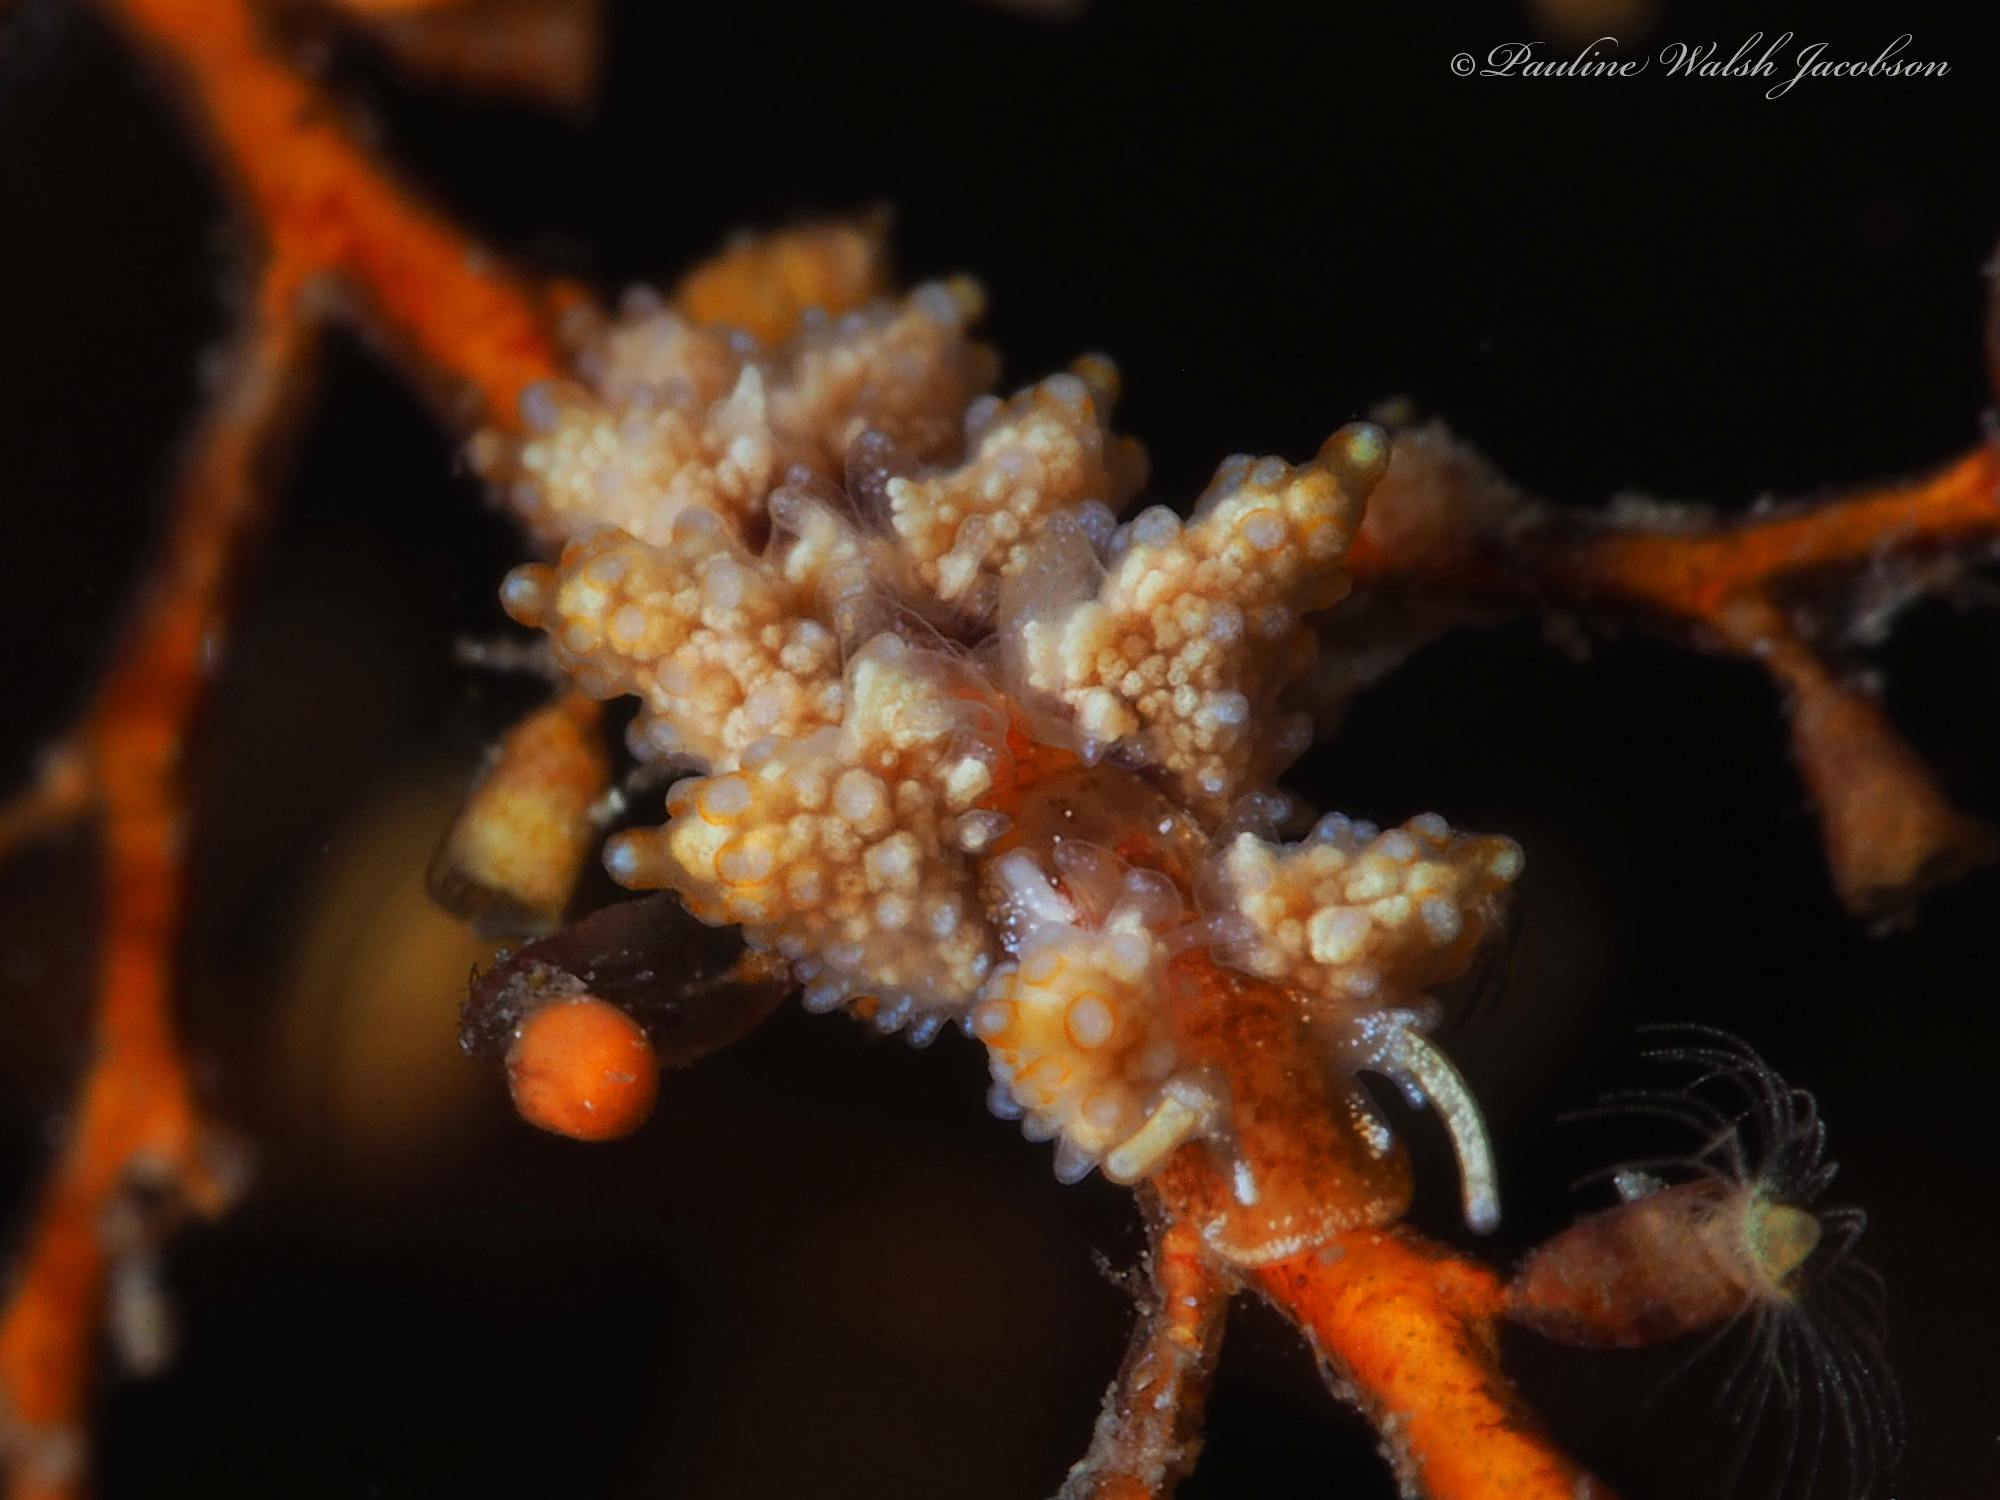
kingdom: Animalia
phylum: Mollusca
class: Gastropoda
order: Nudibranchia
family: Dotidae
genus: Doto
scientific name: Doto torrelavega
